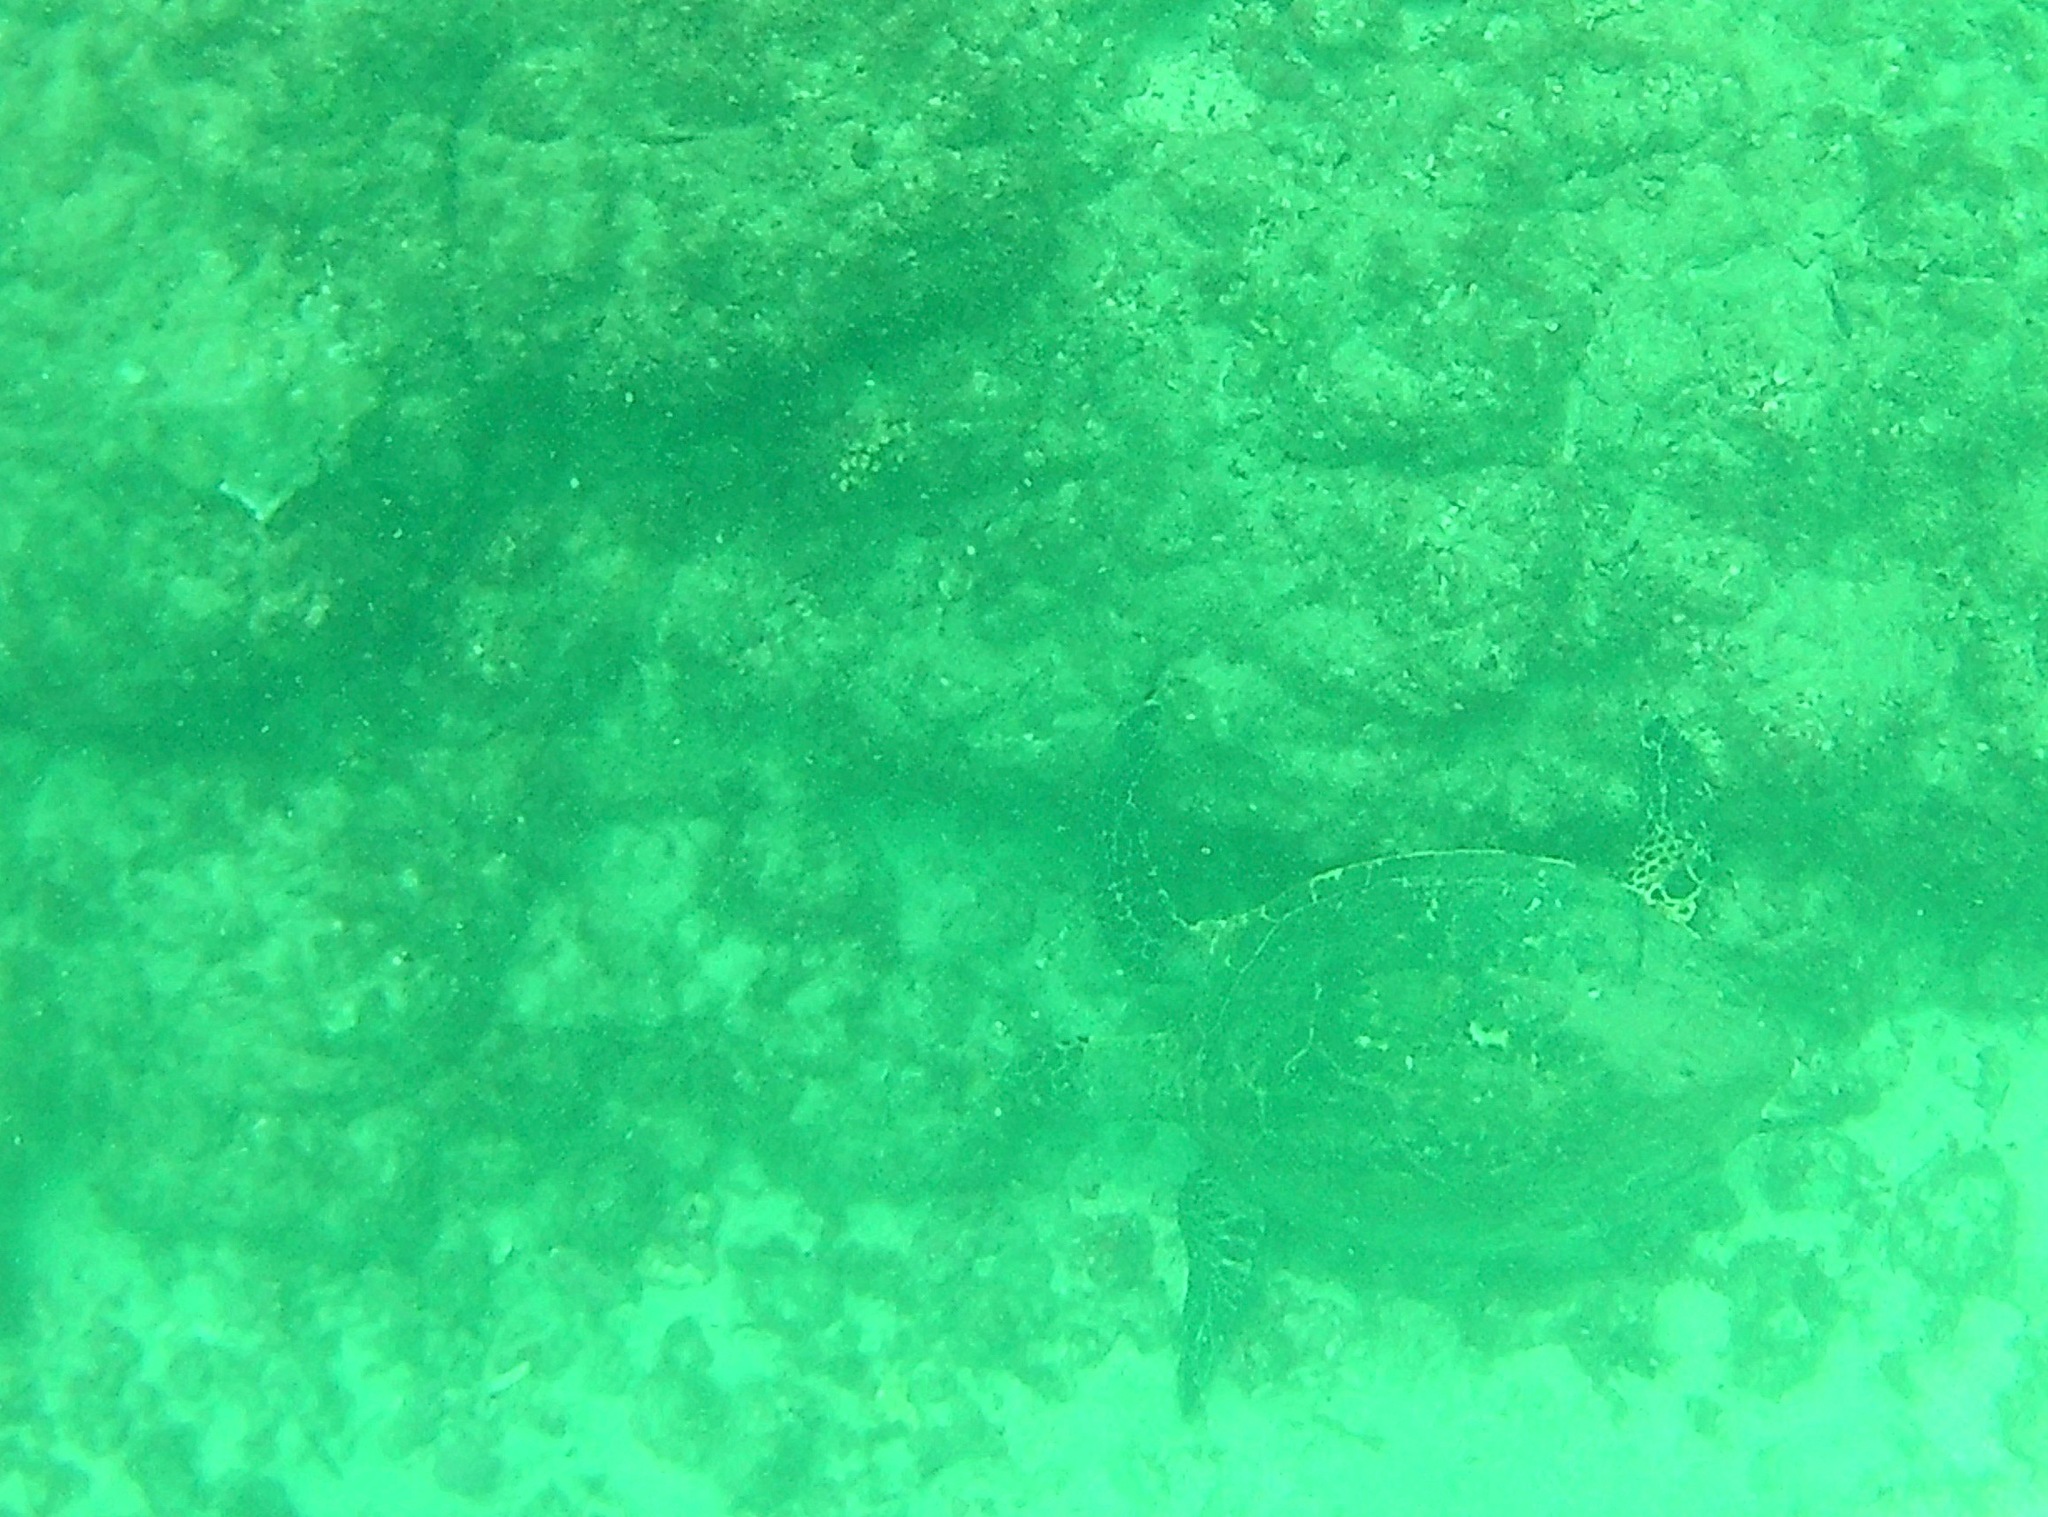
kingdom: Animalia
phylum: Chordata
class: Testudines
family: Cheloniidae
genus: Eretmochelys
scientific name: Eretmochelys imbricata
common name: Hawksbill turtle
